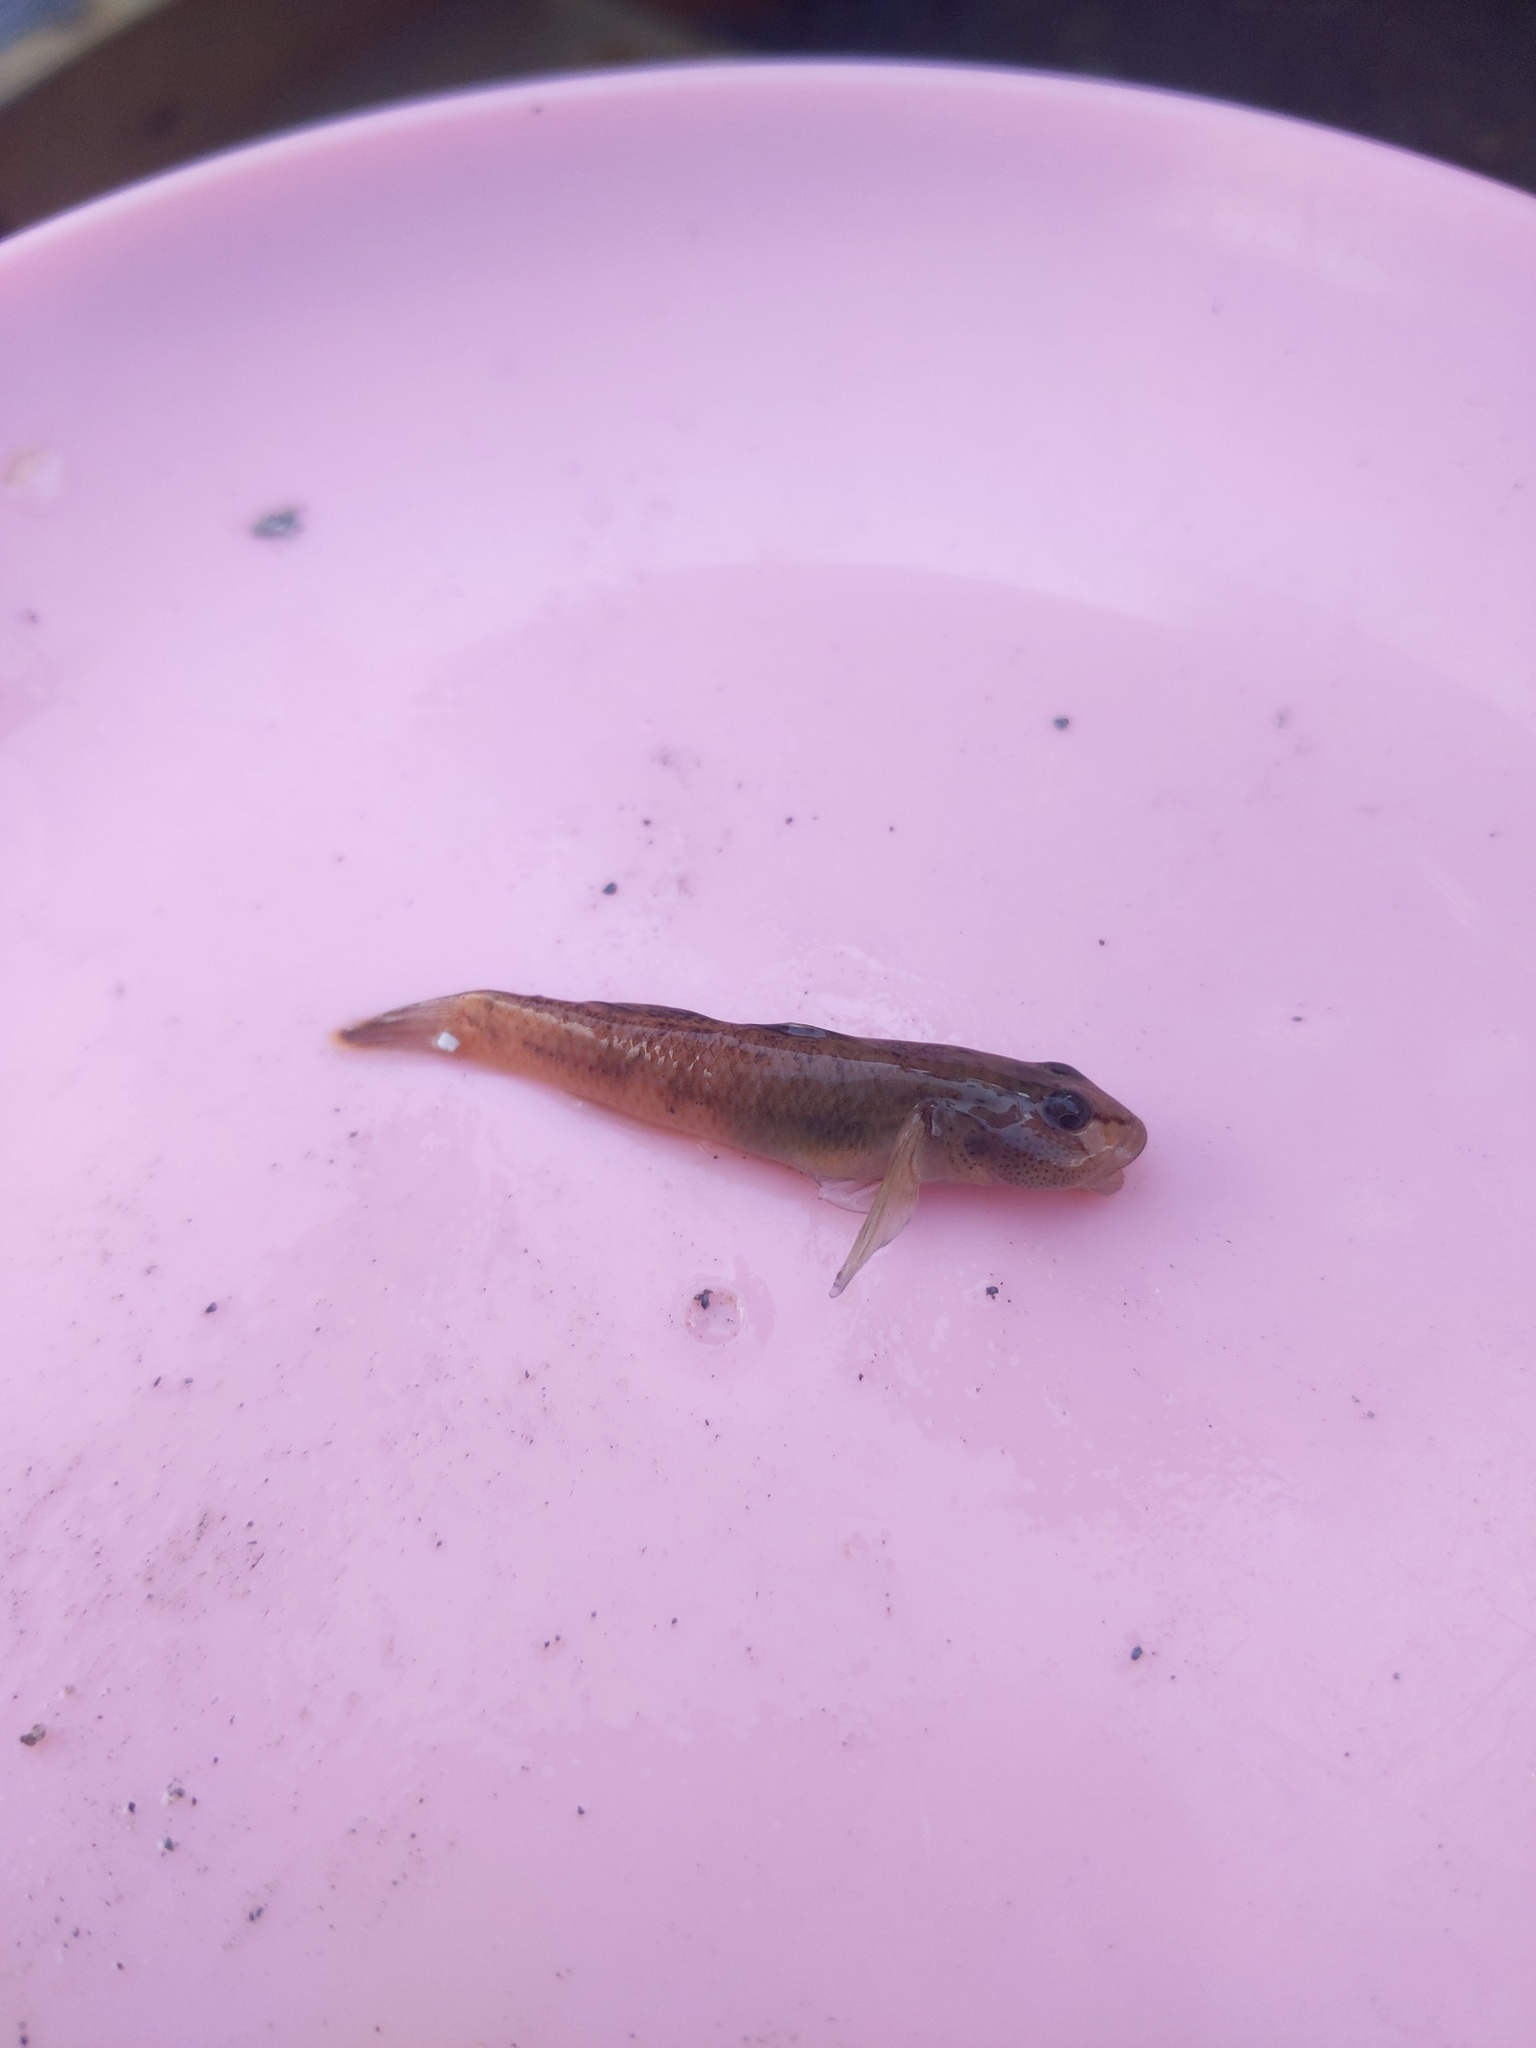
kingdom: Animalia
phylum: Chordata
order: Perciformes
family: Gobiidae
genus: Rhinogobius
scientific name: Rhinogobius delicatus
